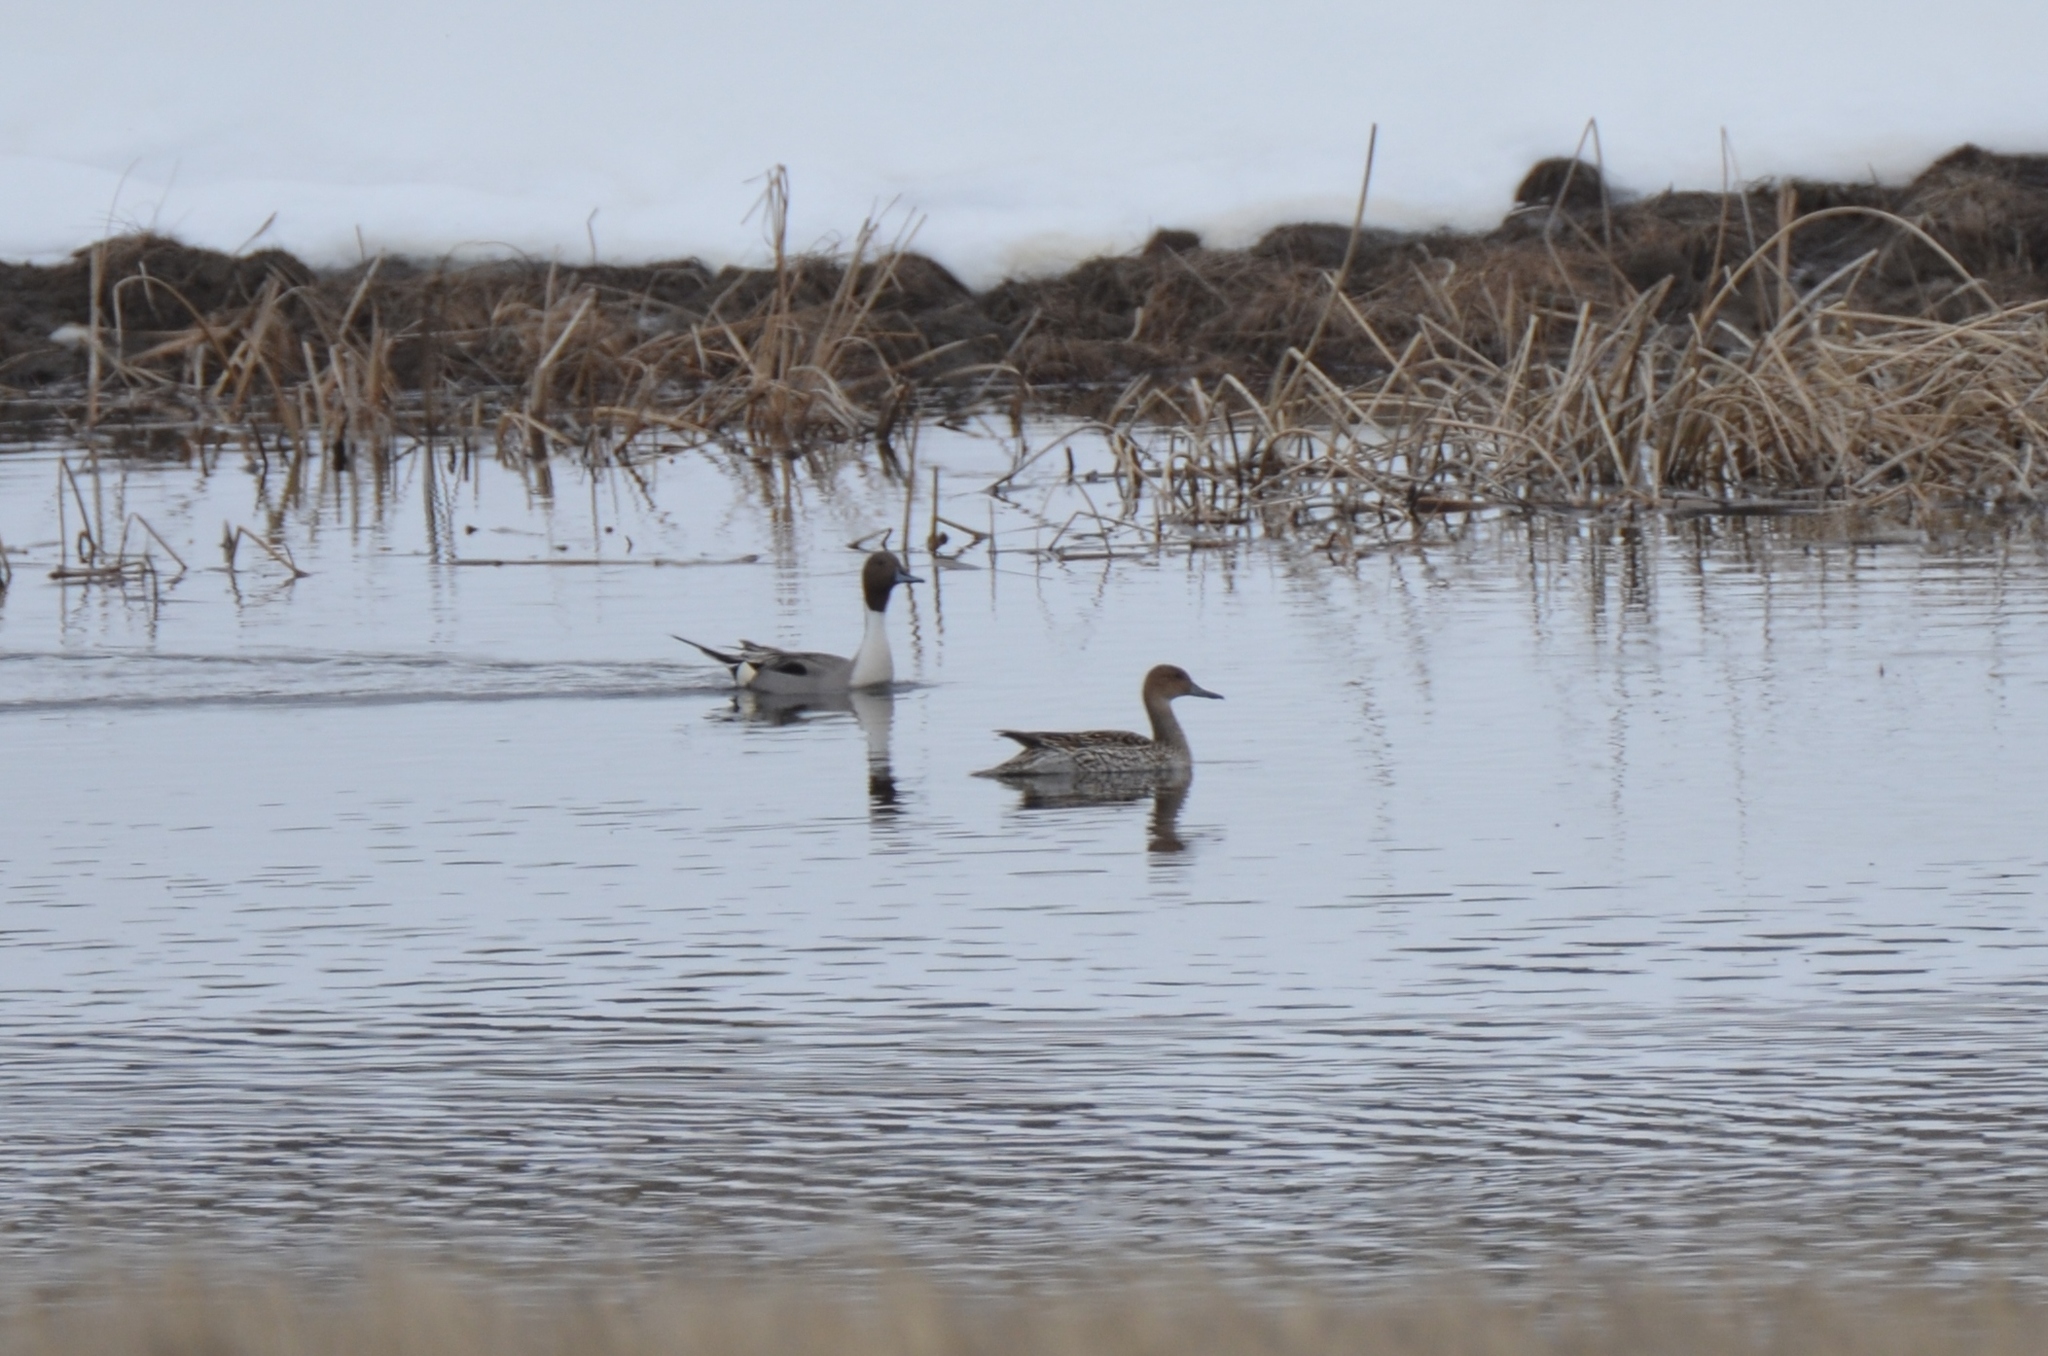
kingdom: Animalia
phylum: Chordata
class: Aves
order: Anseriformes
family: Anatidae
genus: Anas
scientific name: Anas acuta
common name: Northern pintail
